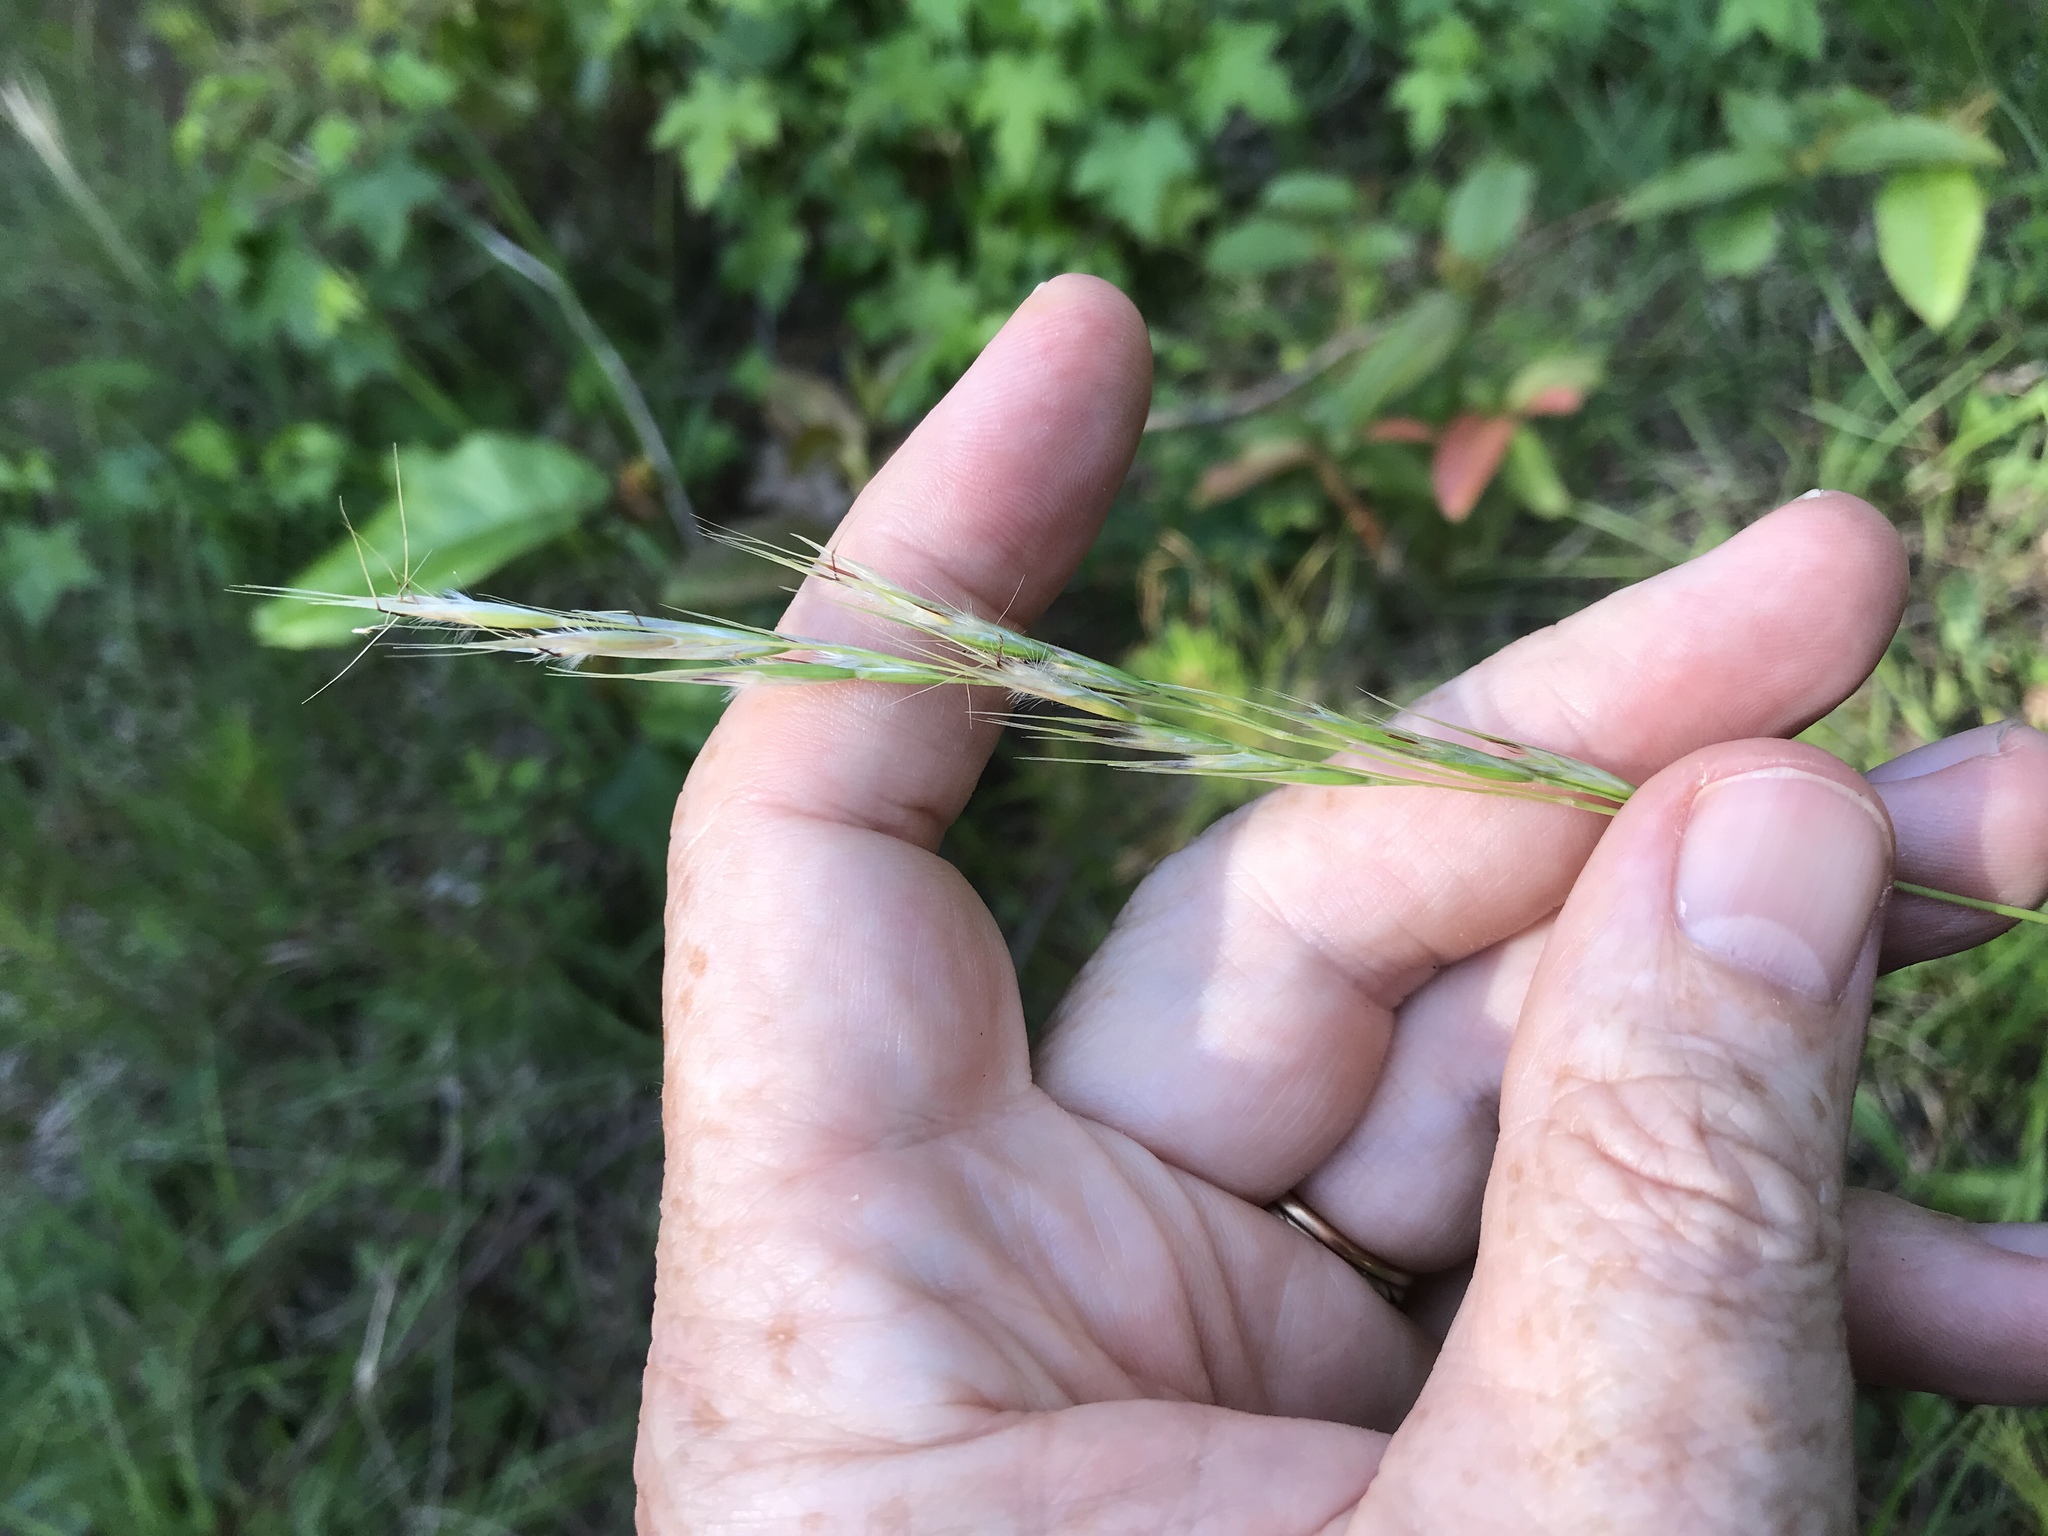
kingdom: Plantae
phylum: Tracheophyta
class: Liliopsida
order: Poales
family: Poaceae
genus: Danthonia
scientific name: Danthonia sericea
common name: Downy danthonia
